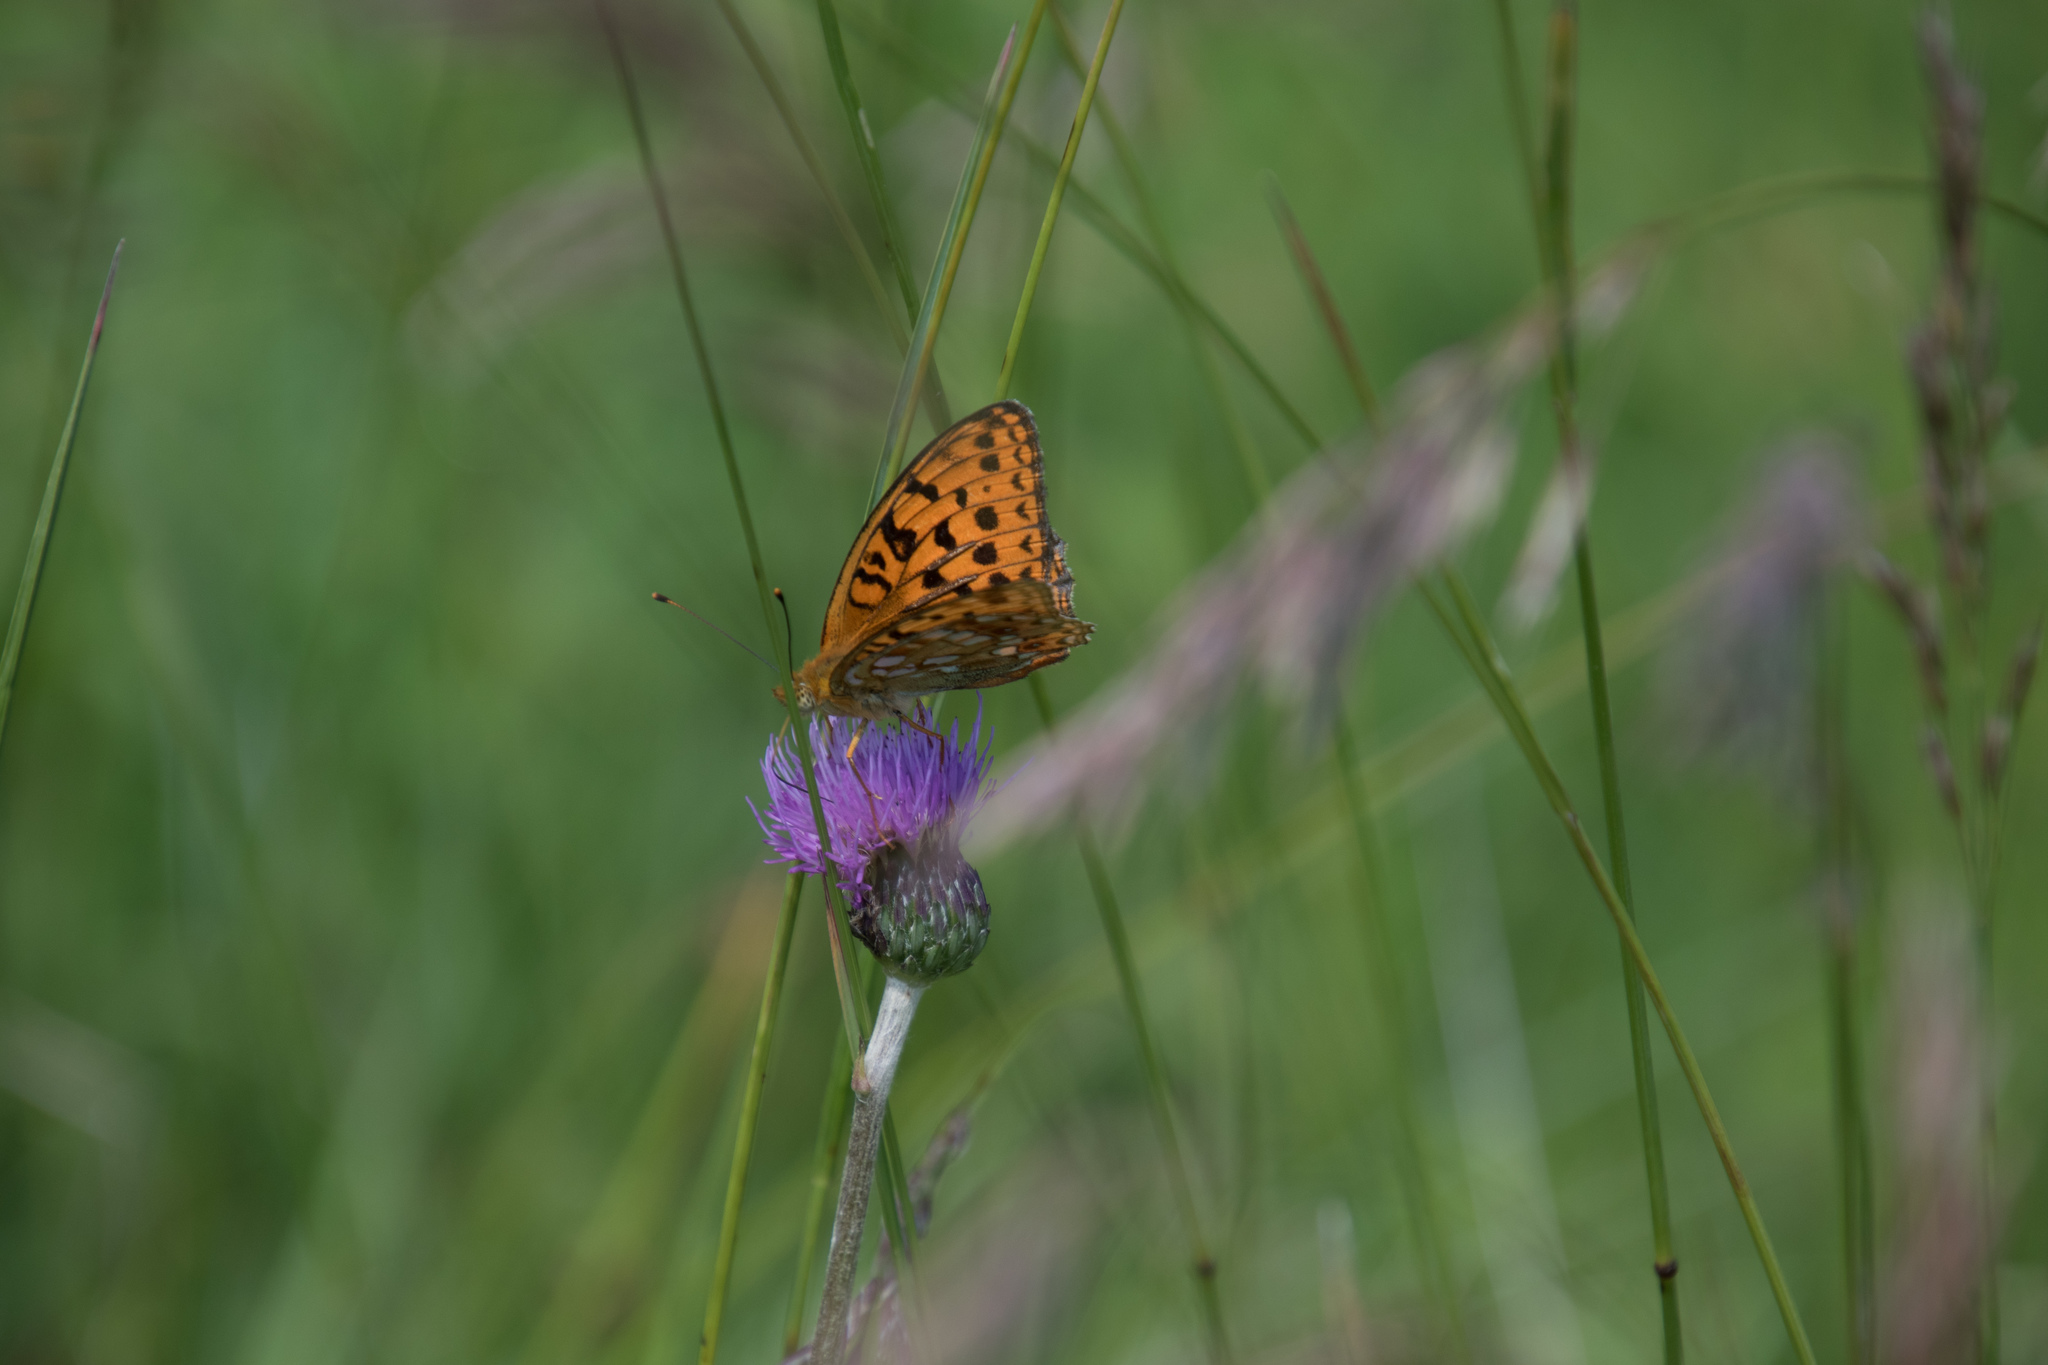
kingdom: Animalia
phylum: Arthropoda
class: Insecta
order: Lepidoptera
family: Nymphalidae
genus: Fabriciana
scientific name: Fabriciana adippe
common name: High brown fritillary
